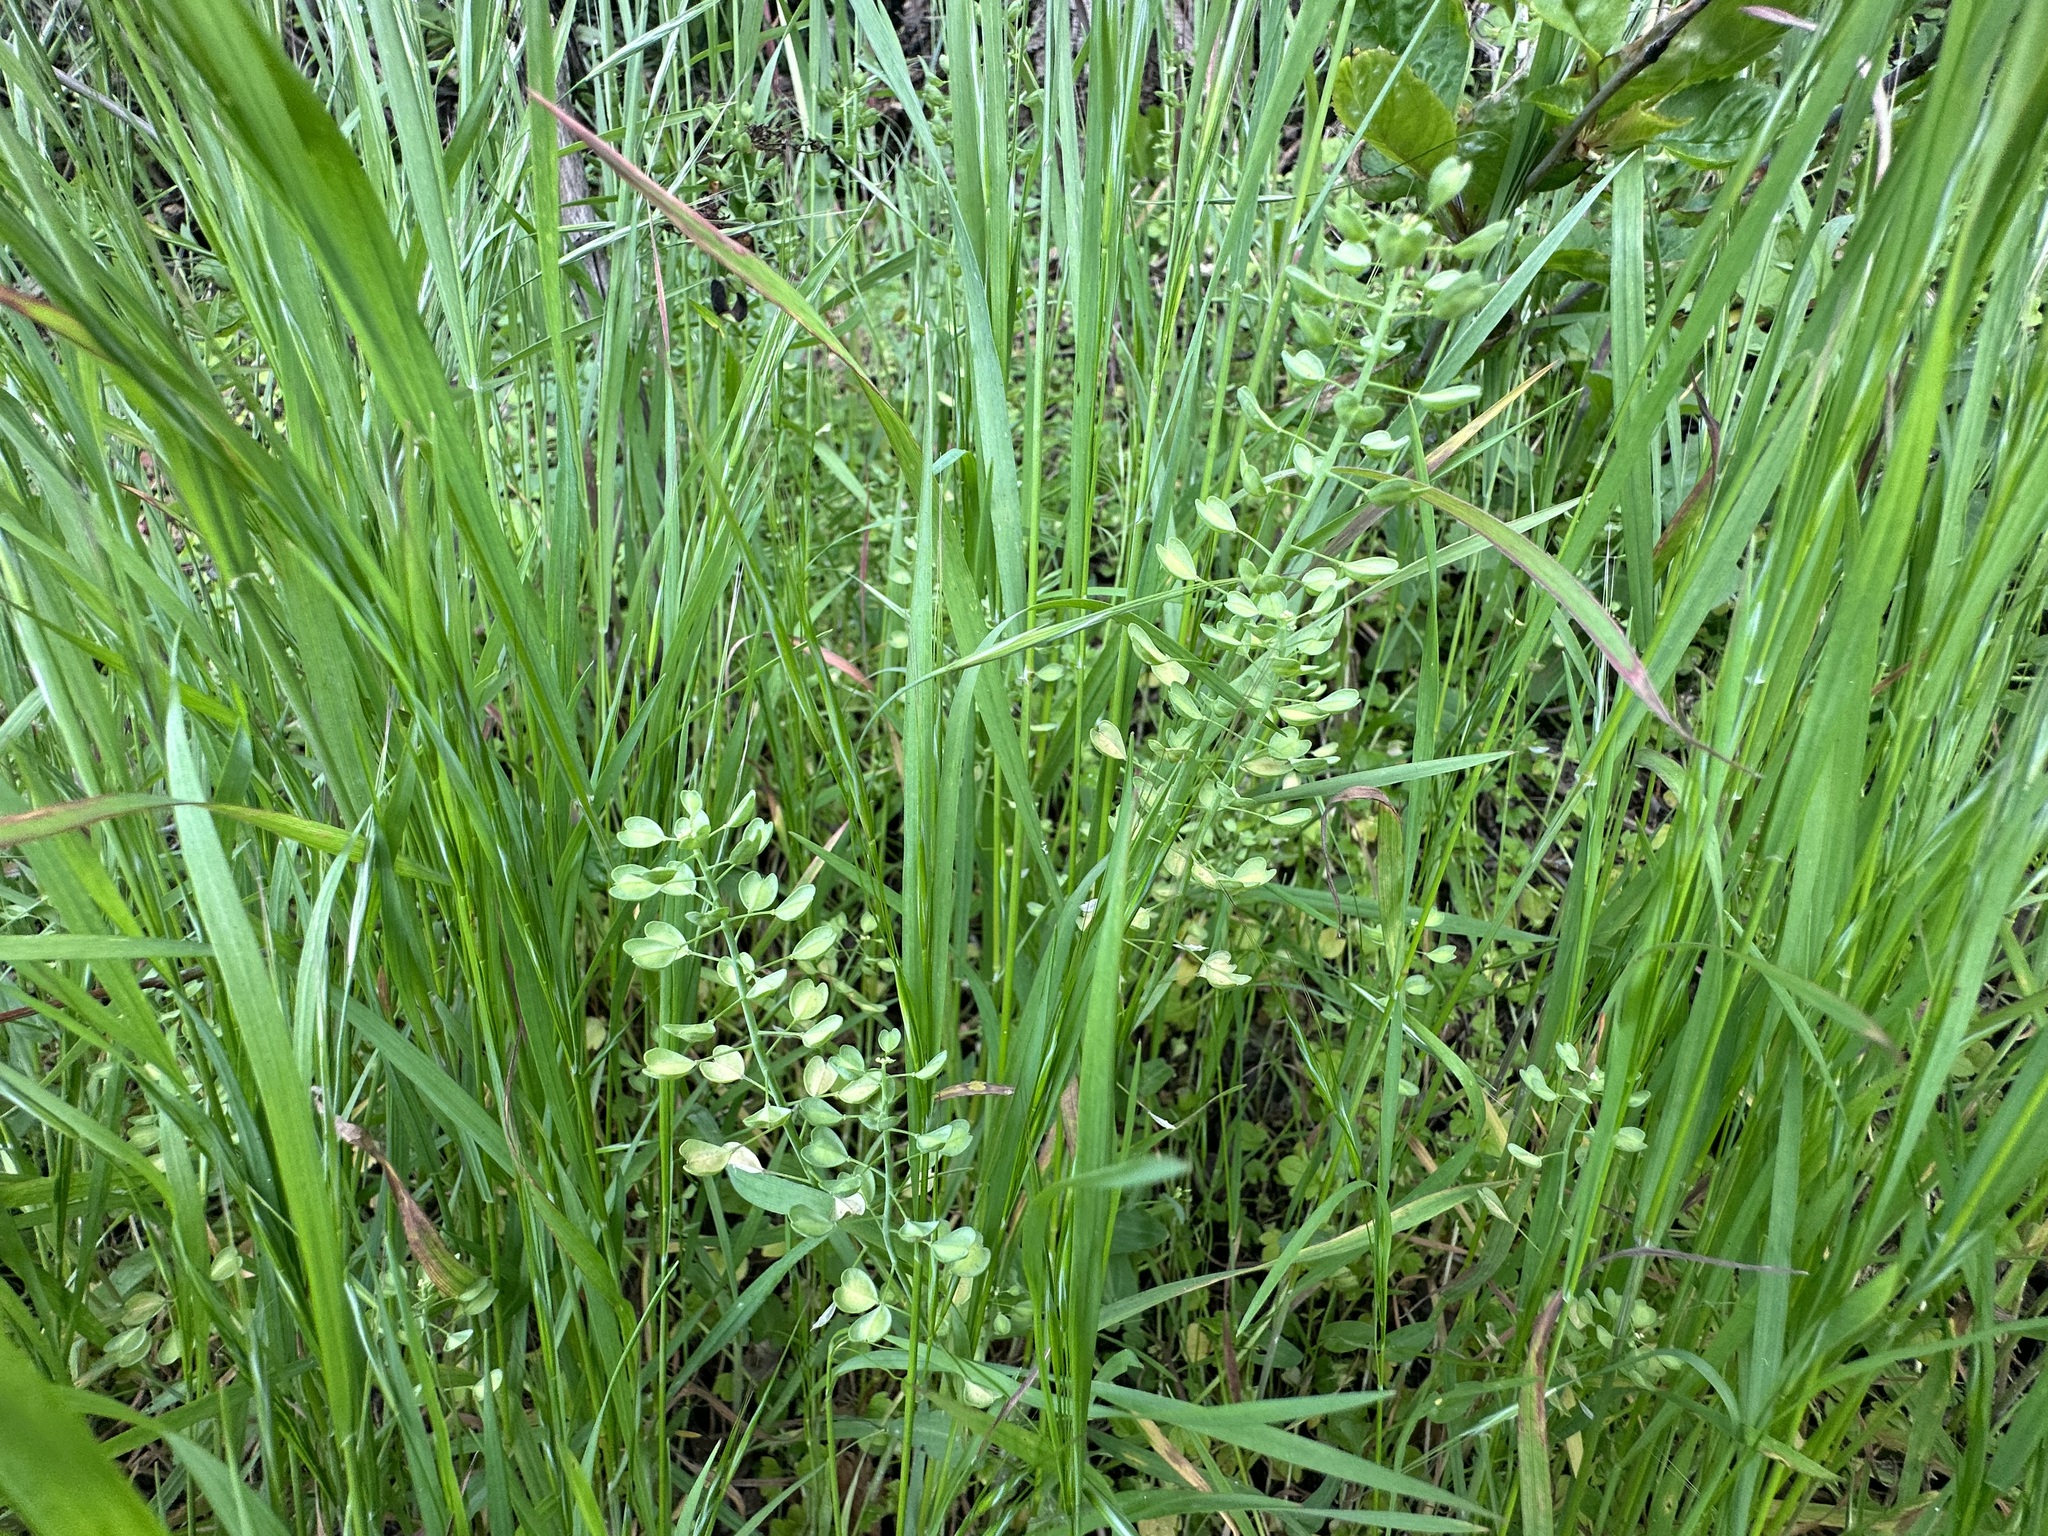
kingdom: Plantae
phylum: Tracheophyta
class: Magnoliopsida
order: Brassicales
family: Brassicaceae
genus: Noccaea
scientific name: Noccaea perfoliata
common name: Perfoliate pennycress
